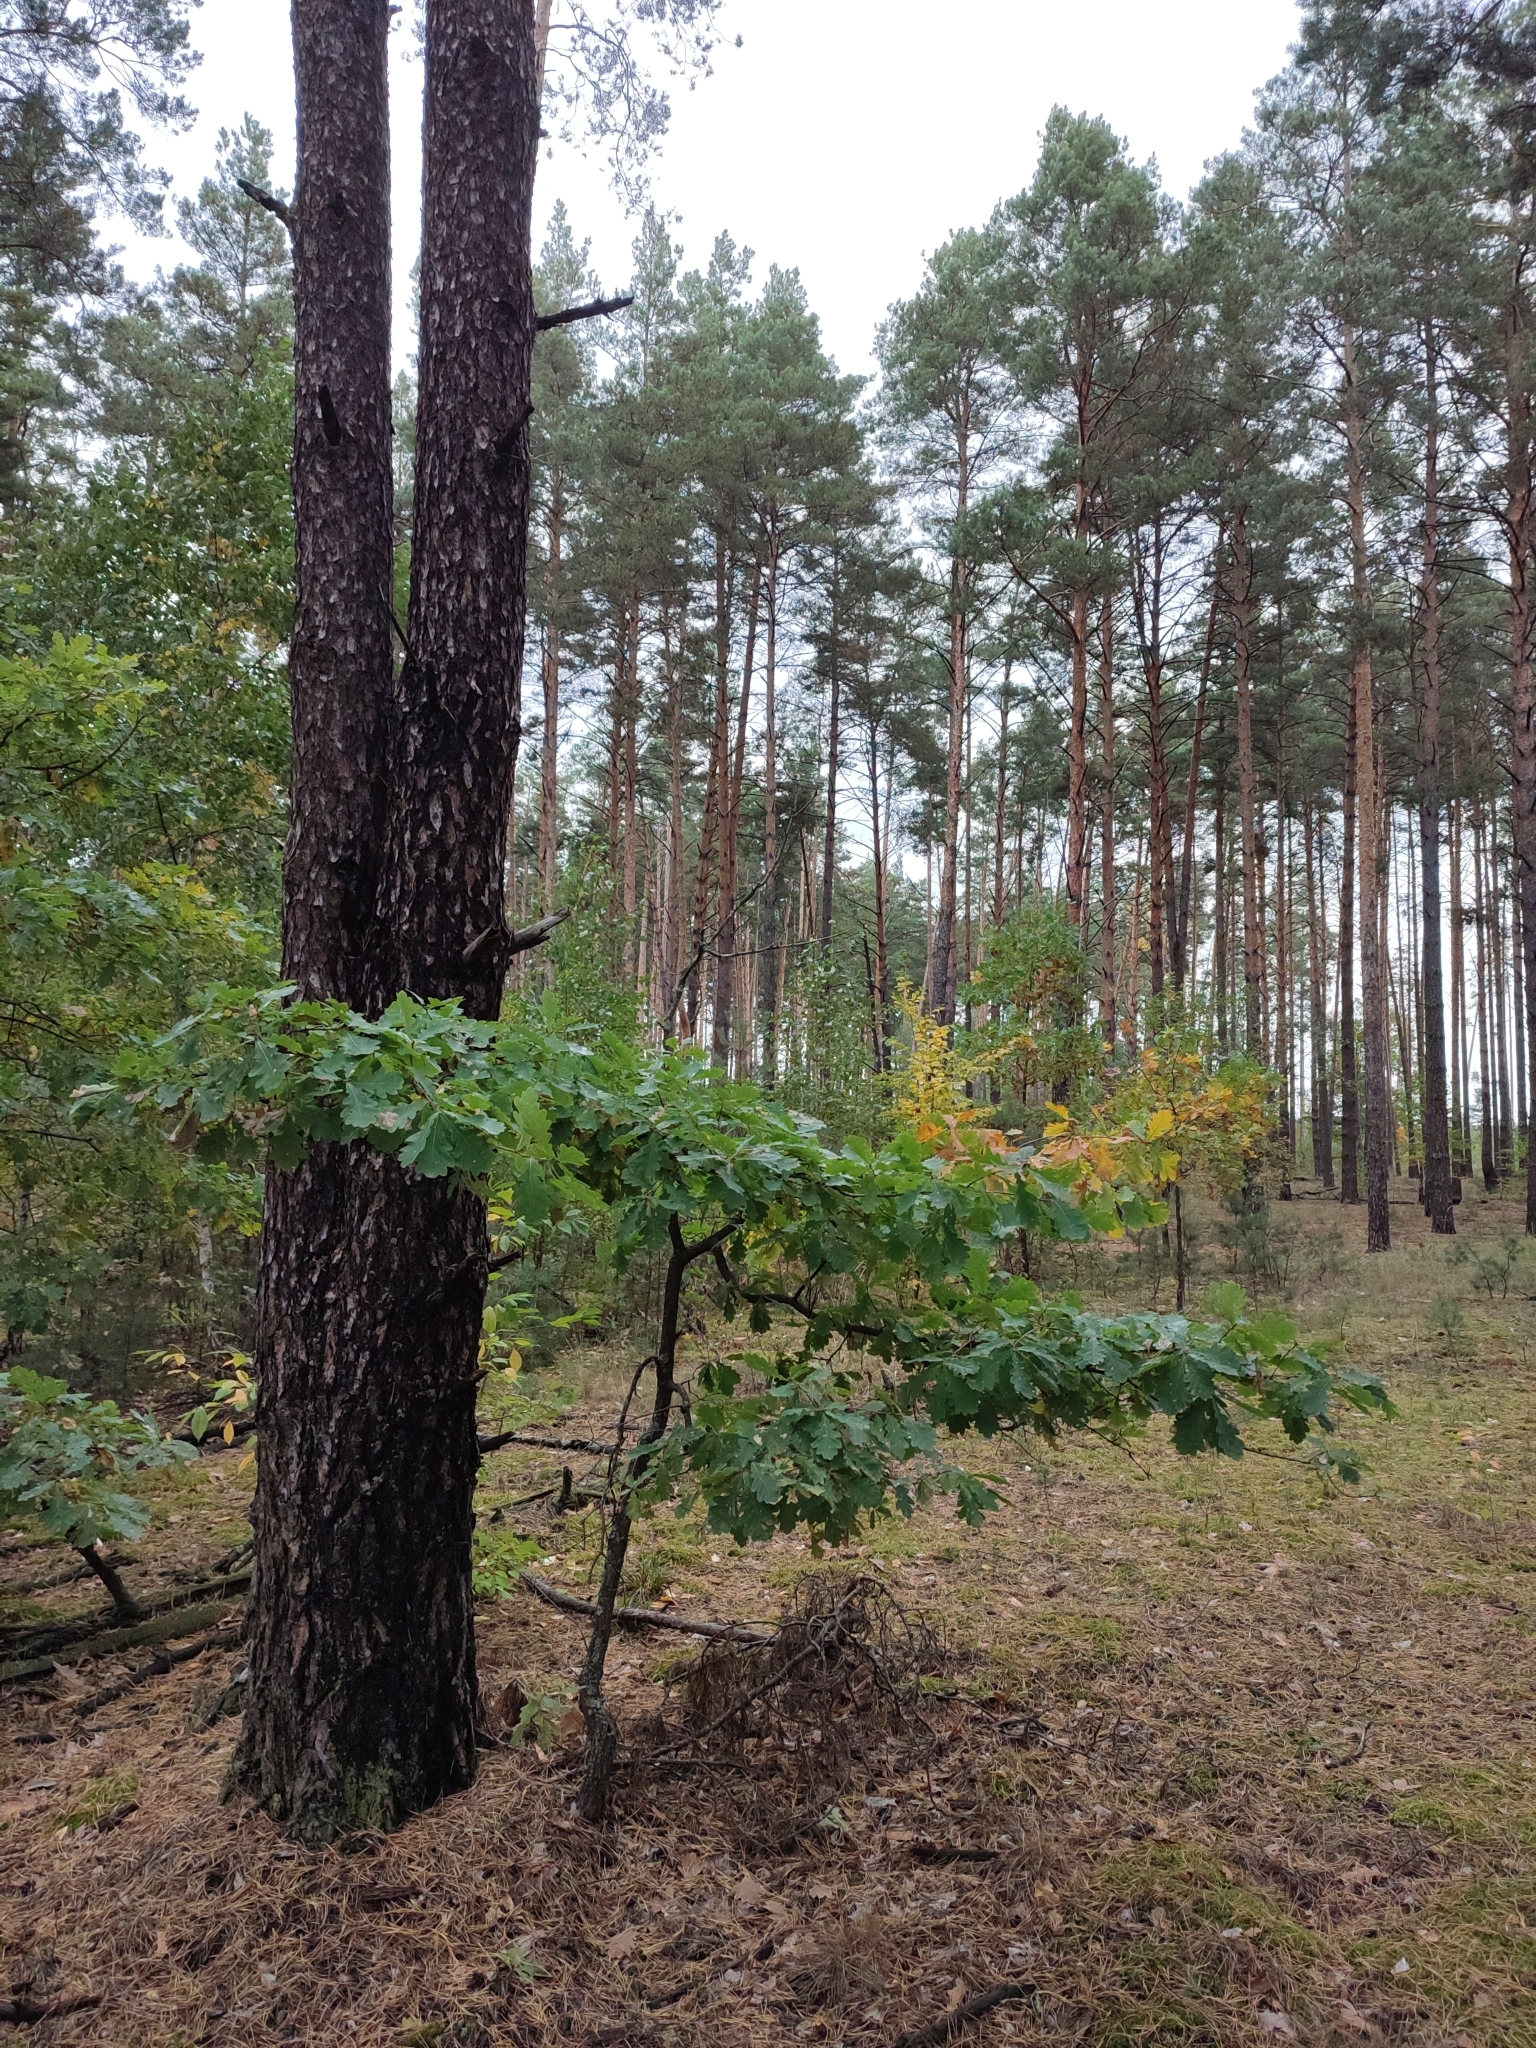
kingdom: Plantae
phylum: Tracheophyta
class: Magnoliopsida
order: Fagales
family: Fagaceae
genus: Quercus
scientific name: Quercus robur
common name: Pedunculate oak
